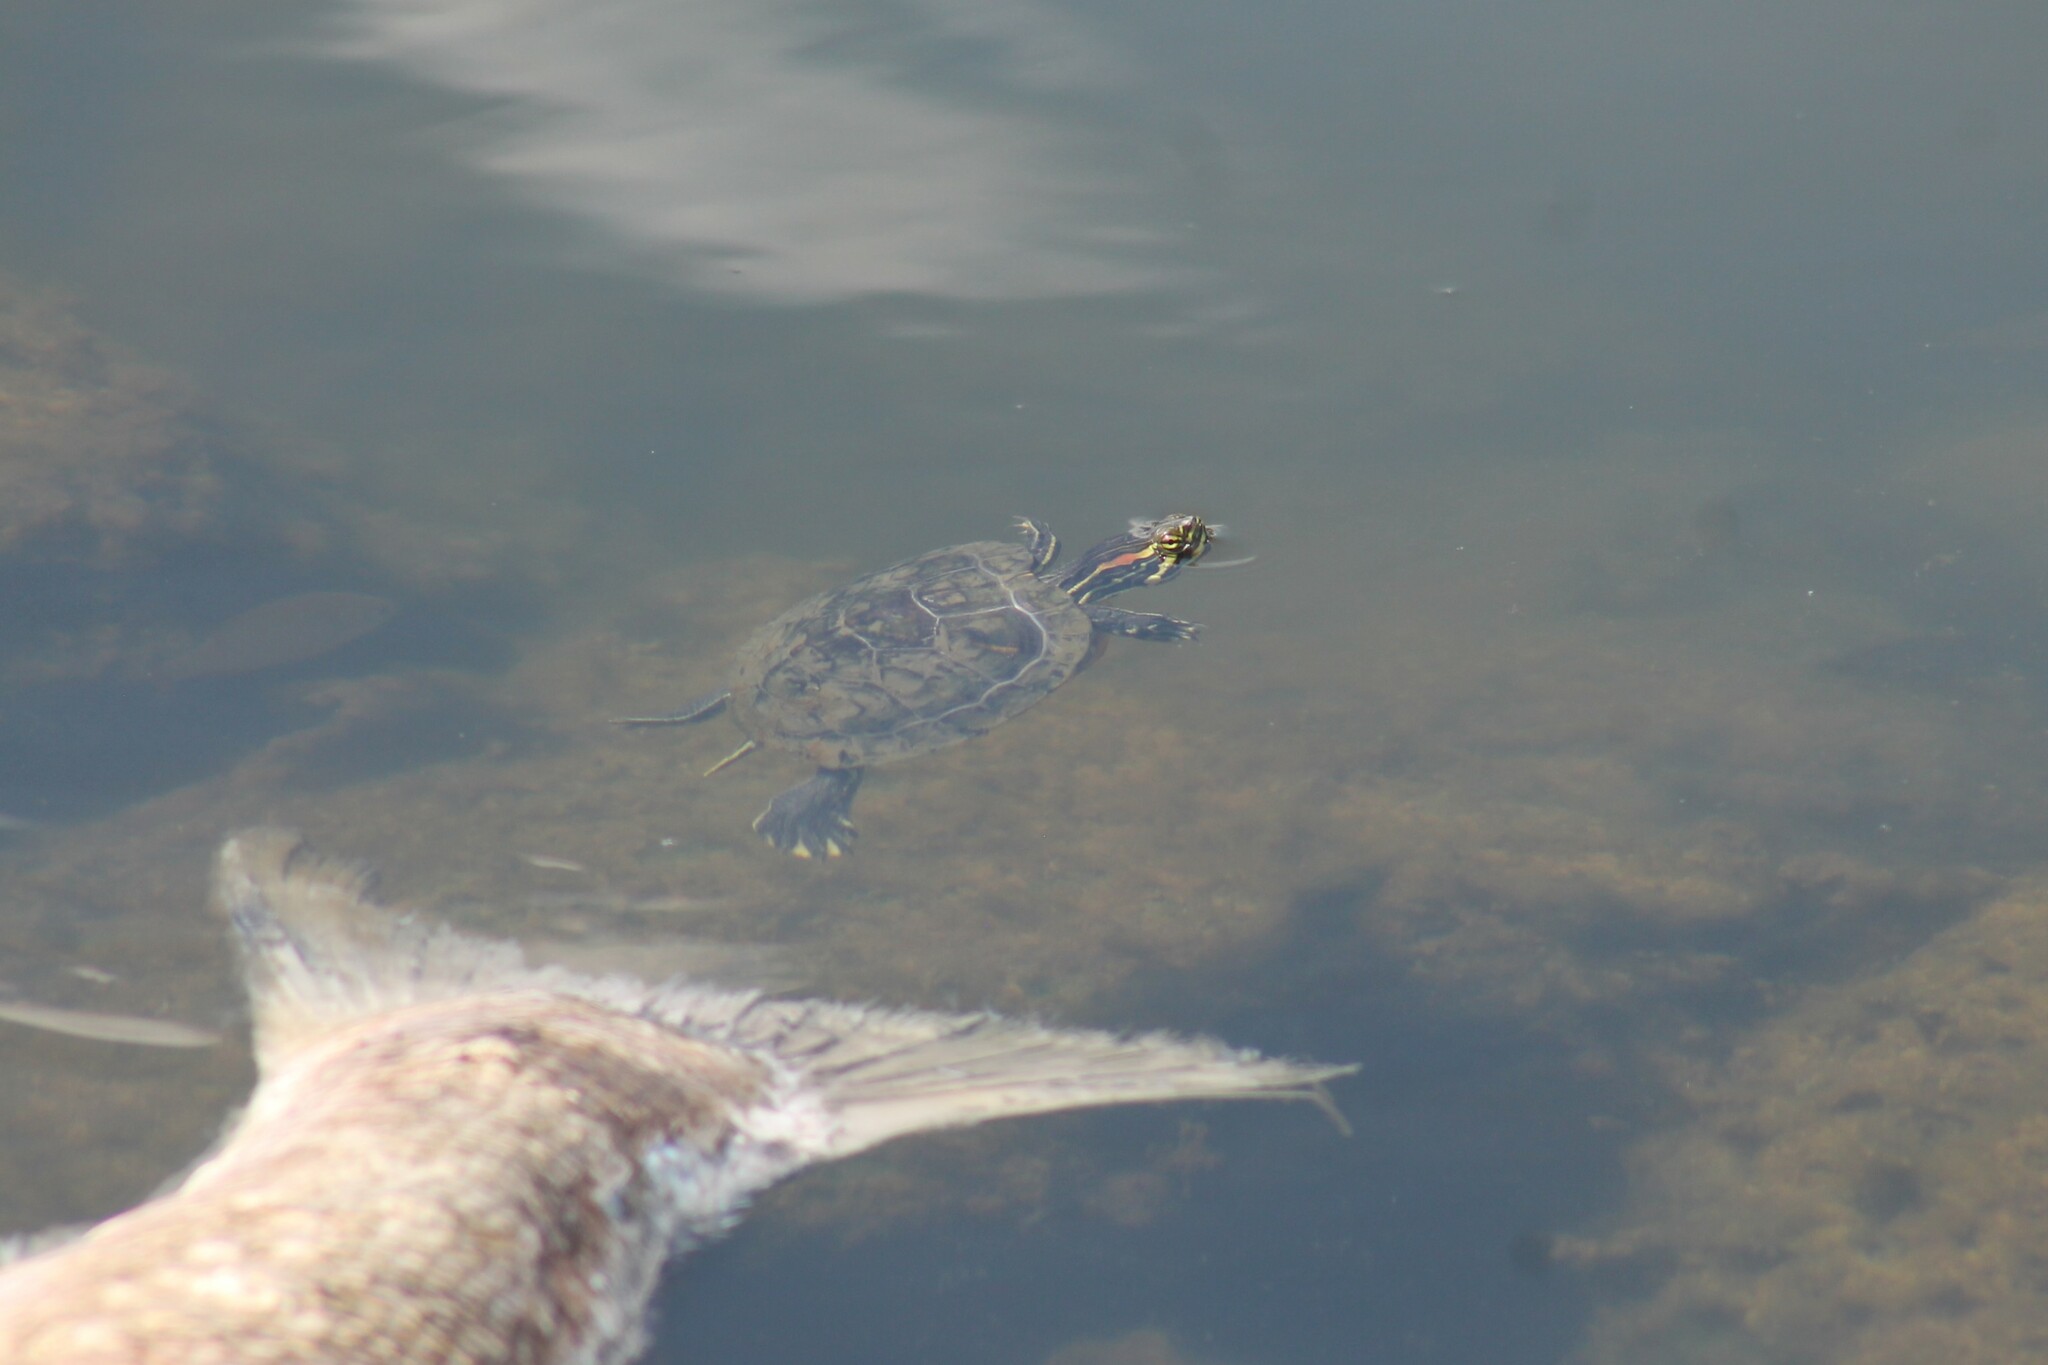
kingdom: Animalia
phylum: Chordata
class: Testudines
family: Emydidae
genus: Trachemys
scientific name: Trachemys scripta
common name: Slider
